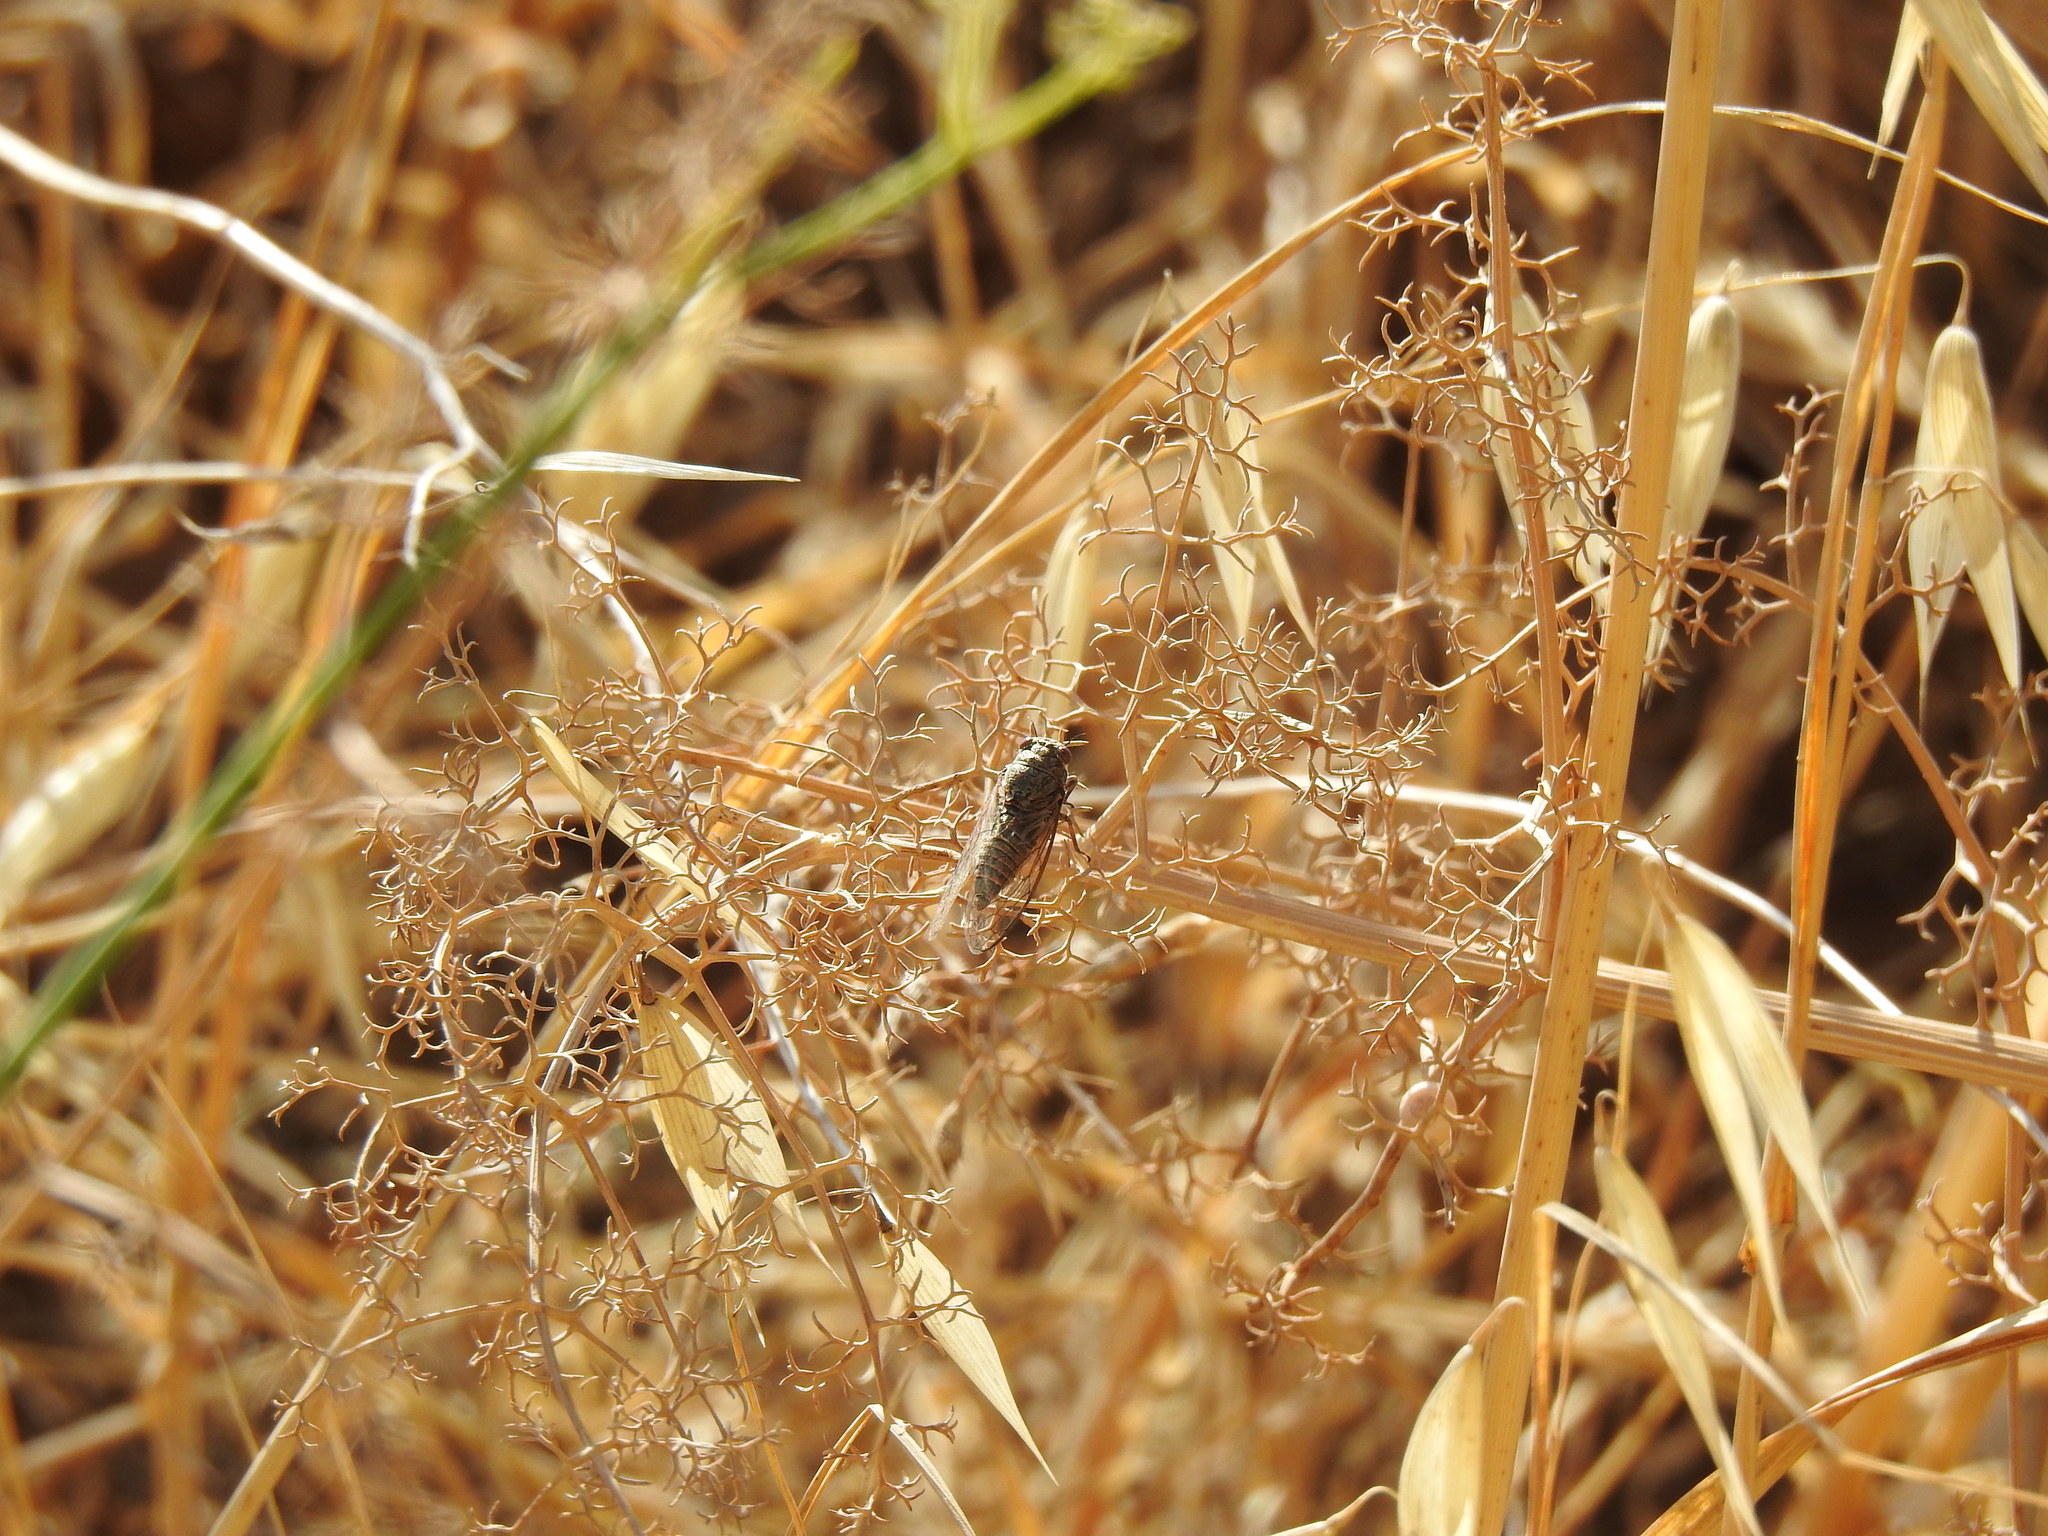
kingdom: Animalia
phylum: Arthropoda
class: Insecta
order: Hemiptera
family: Cicadidae
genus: Tettigettalna
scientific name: Tettigettalna josei
